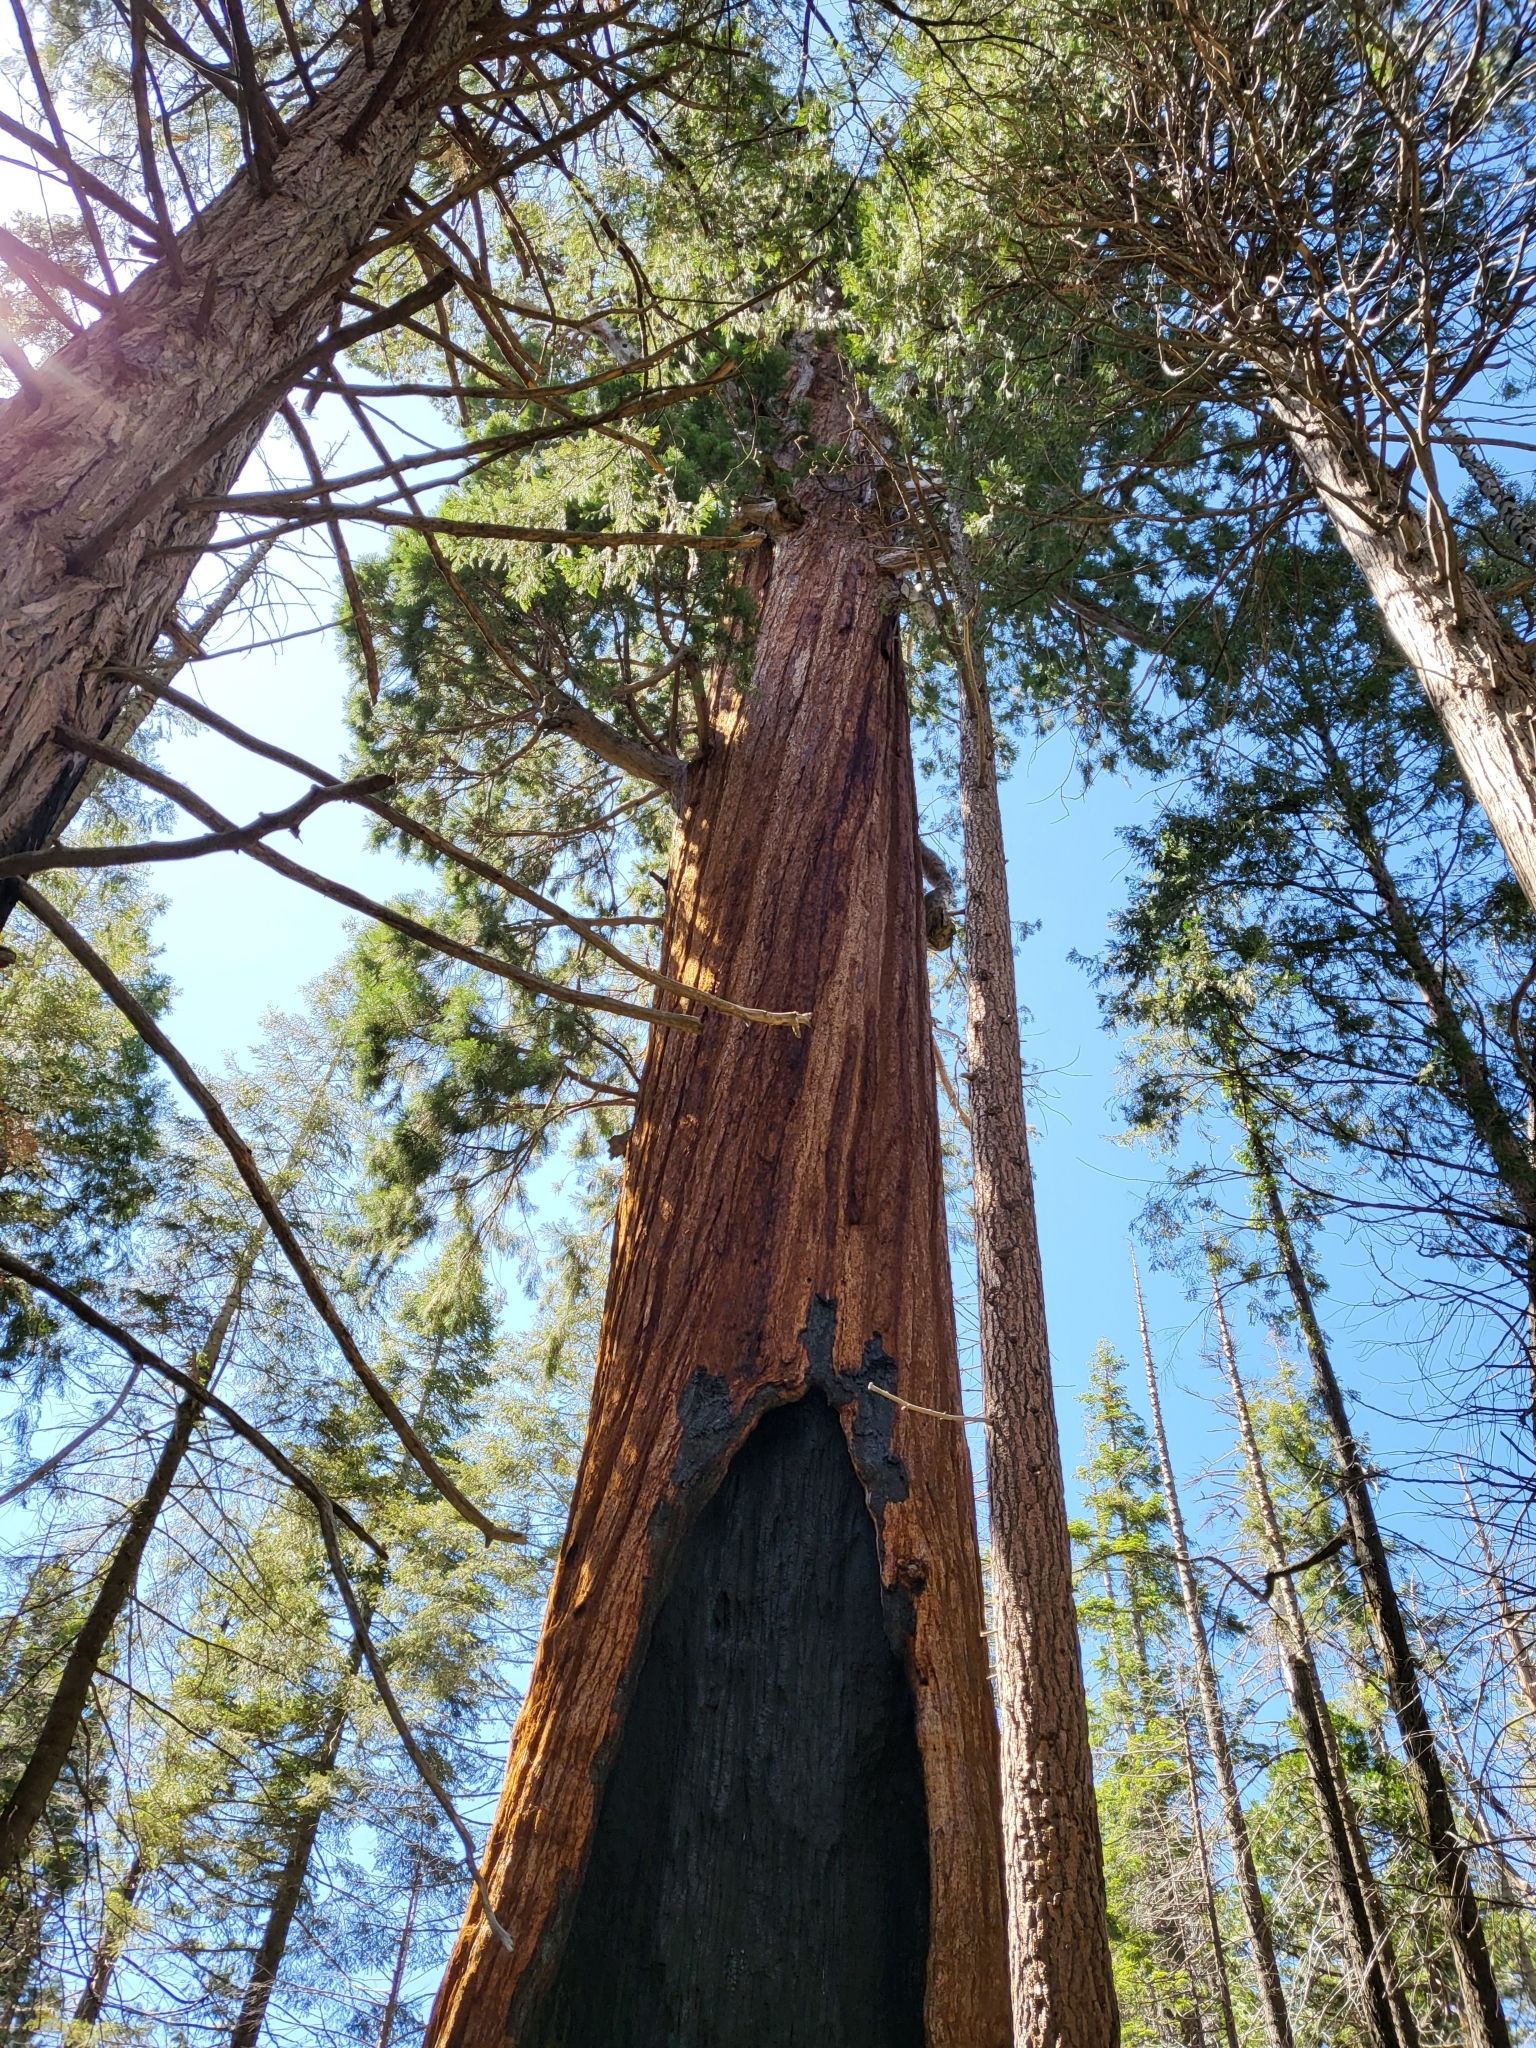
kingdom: Plantae
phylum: Tracheophyta
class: Pinopsida
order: Pinales
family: Cupressaceae
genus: Sequoiadendron
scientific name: Sequoiadendron giganteum
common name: Wellingtonia
